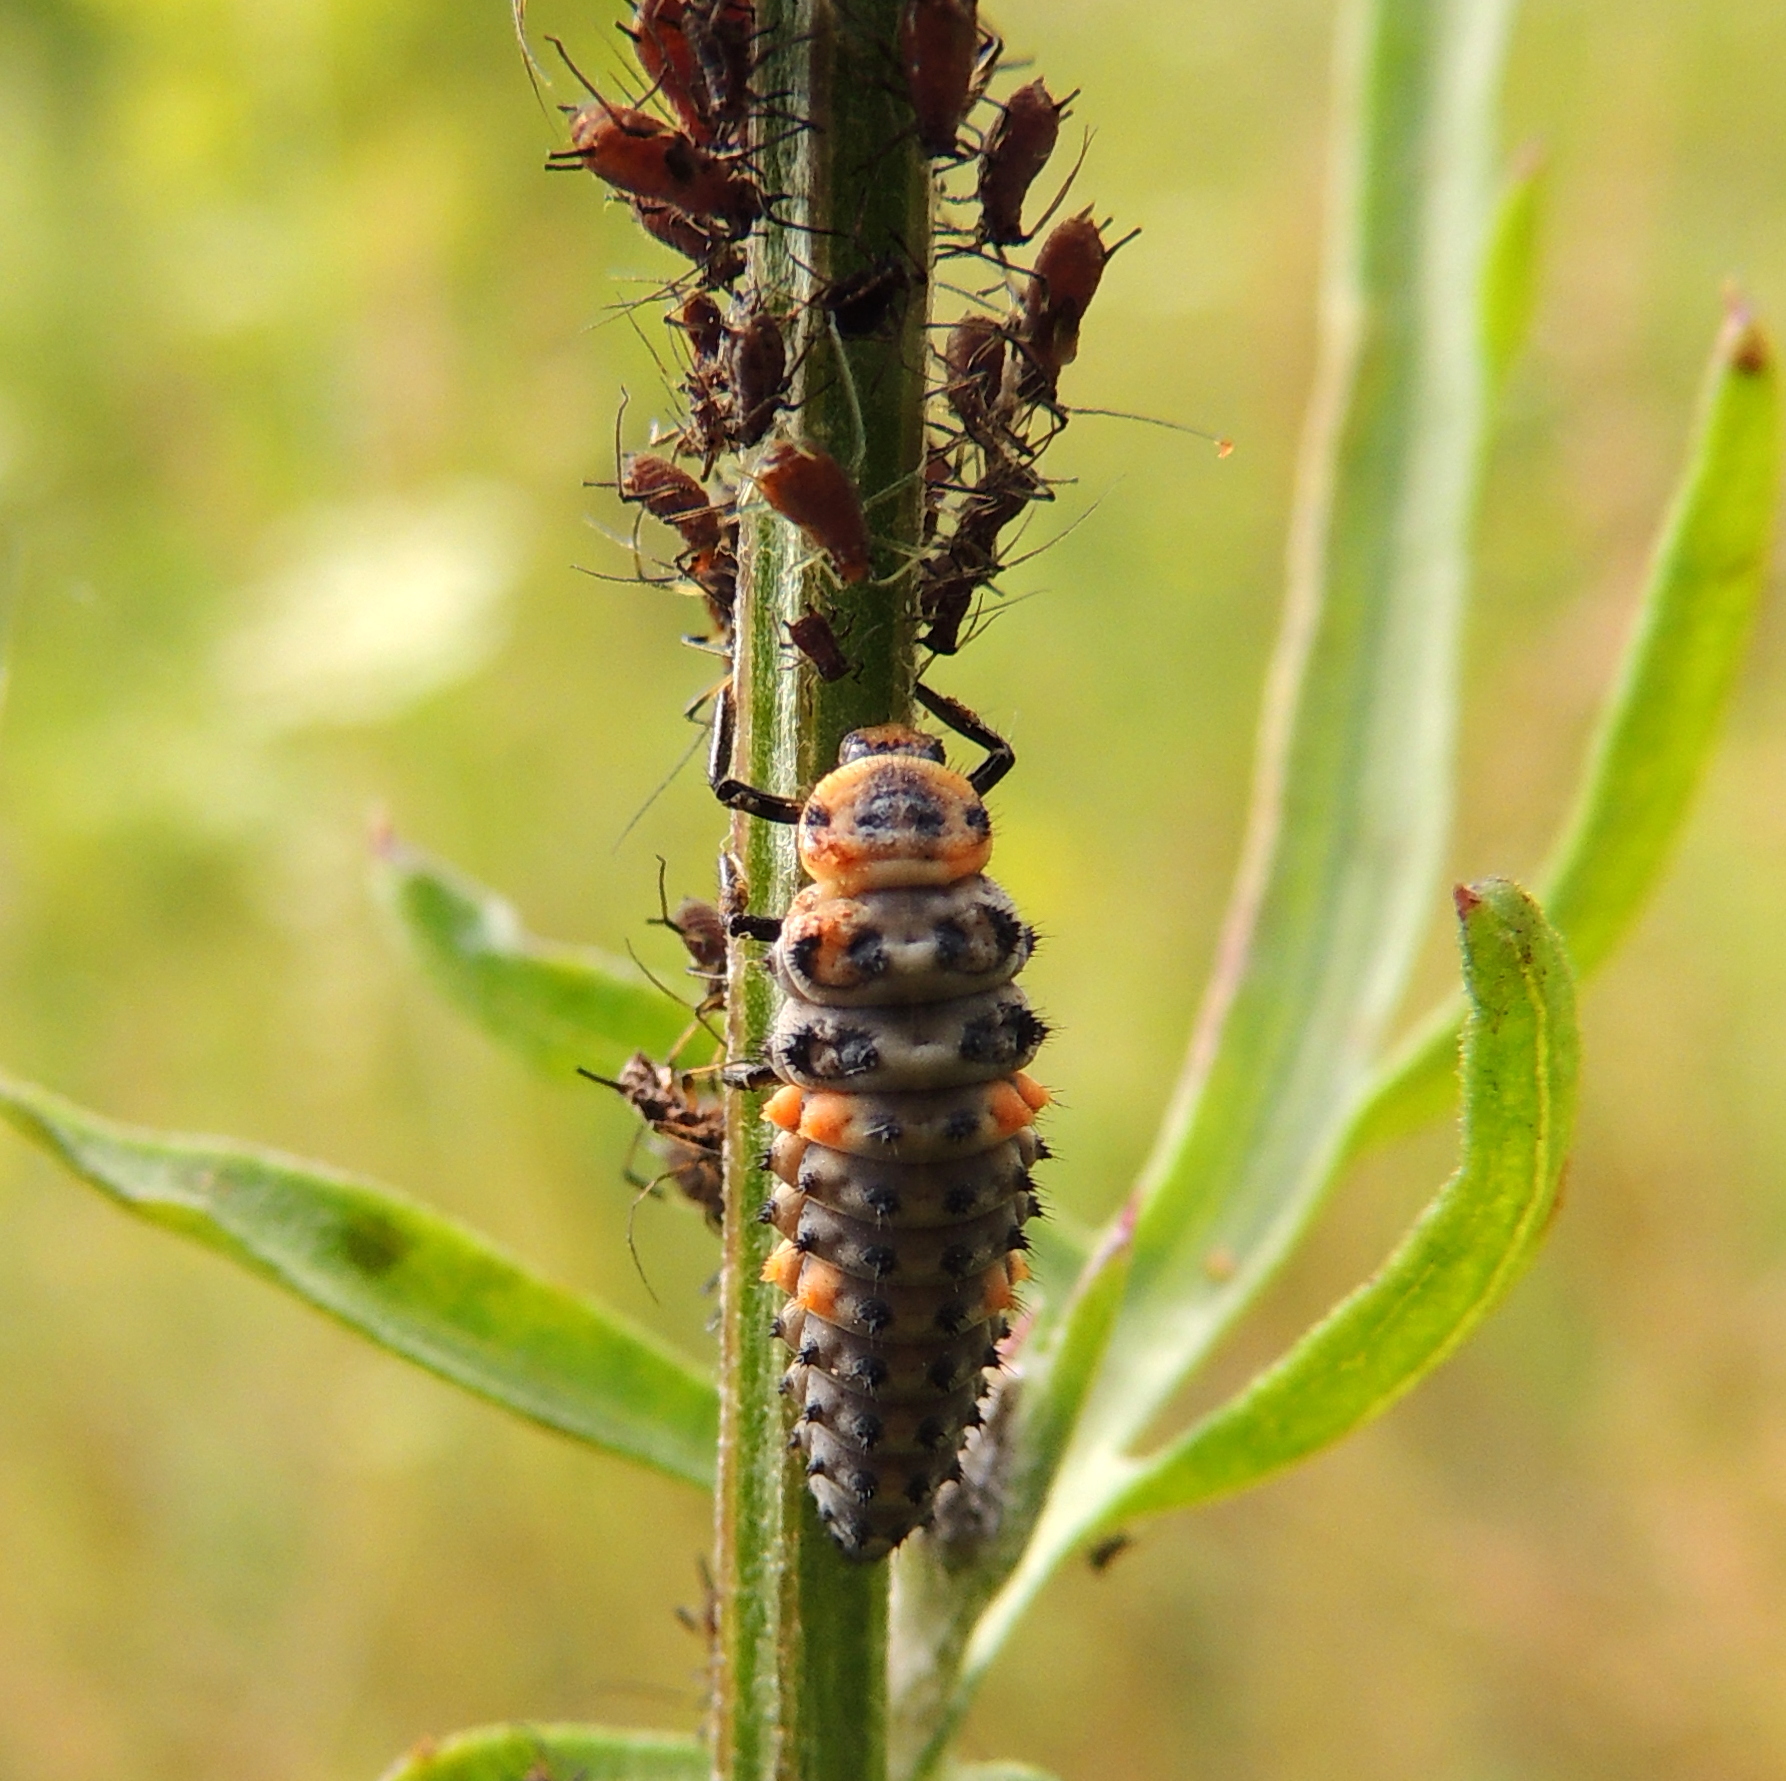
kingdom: Animalia
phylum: Arthropoda
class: Insecta
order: Coleoptera
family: Coccinellidae
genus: Coccinella
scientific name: Coccinella septempunctata
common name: Sevenspotted lady beetle
